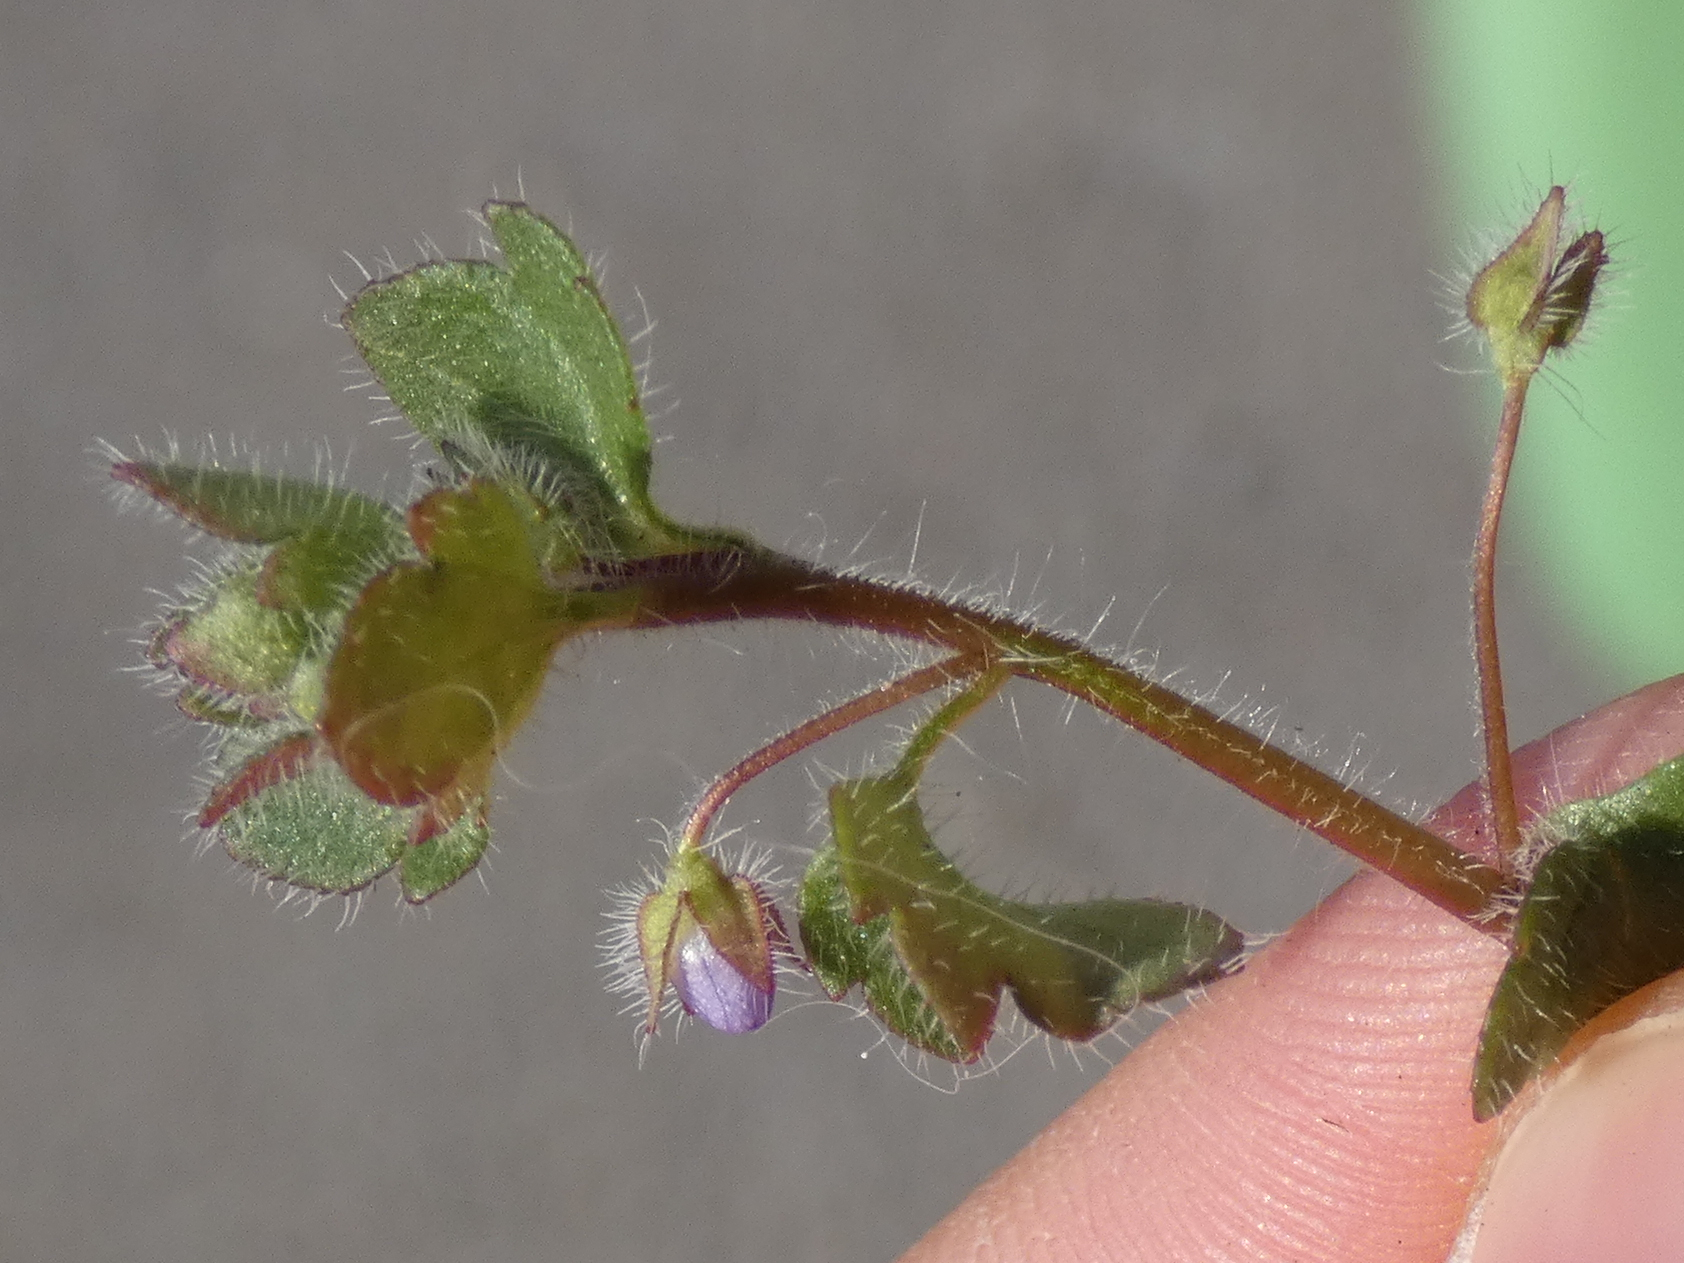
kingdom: Plantae
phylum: Tracheophyta
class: Magnoliopsida
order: Lamiales
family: Plantaginaceae
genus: Veronica
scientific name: Veronica hederifolia
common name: Ivy-leaved speedwell
